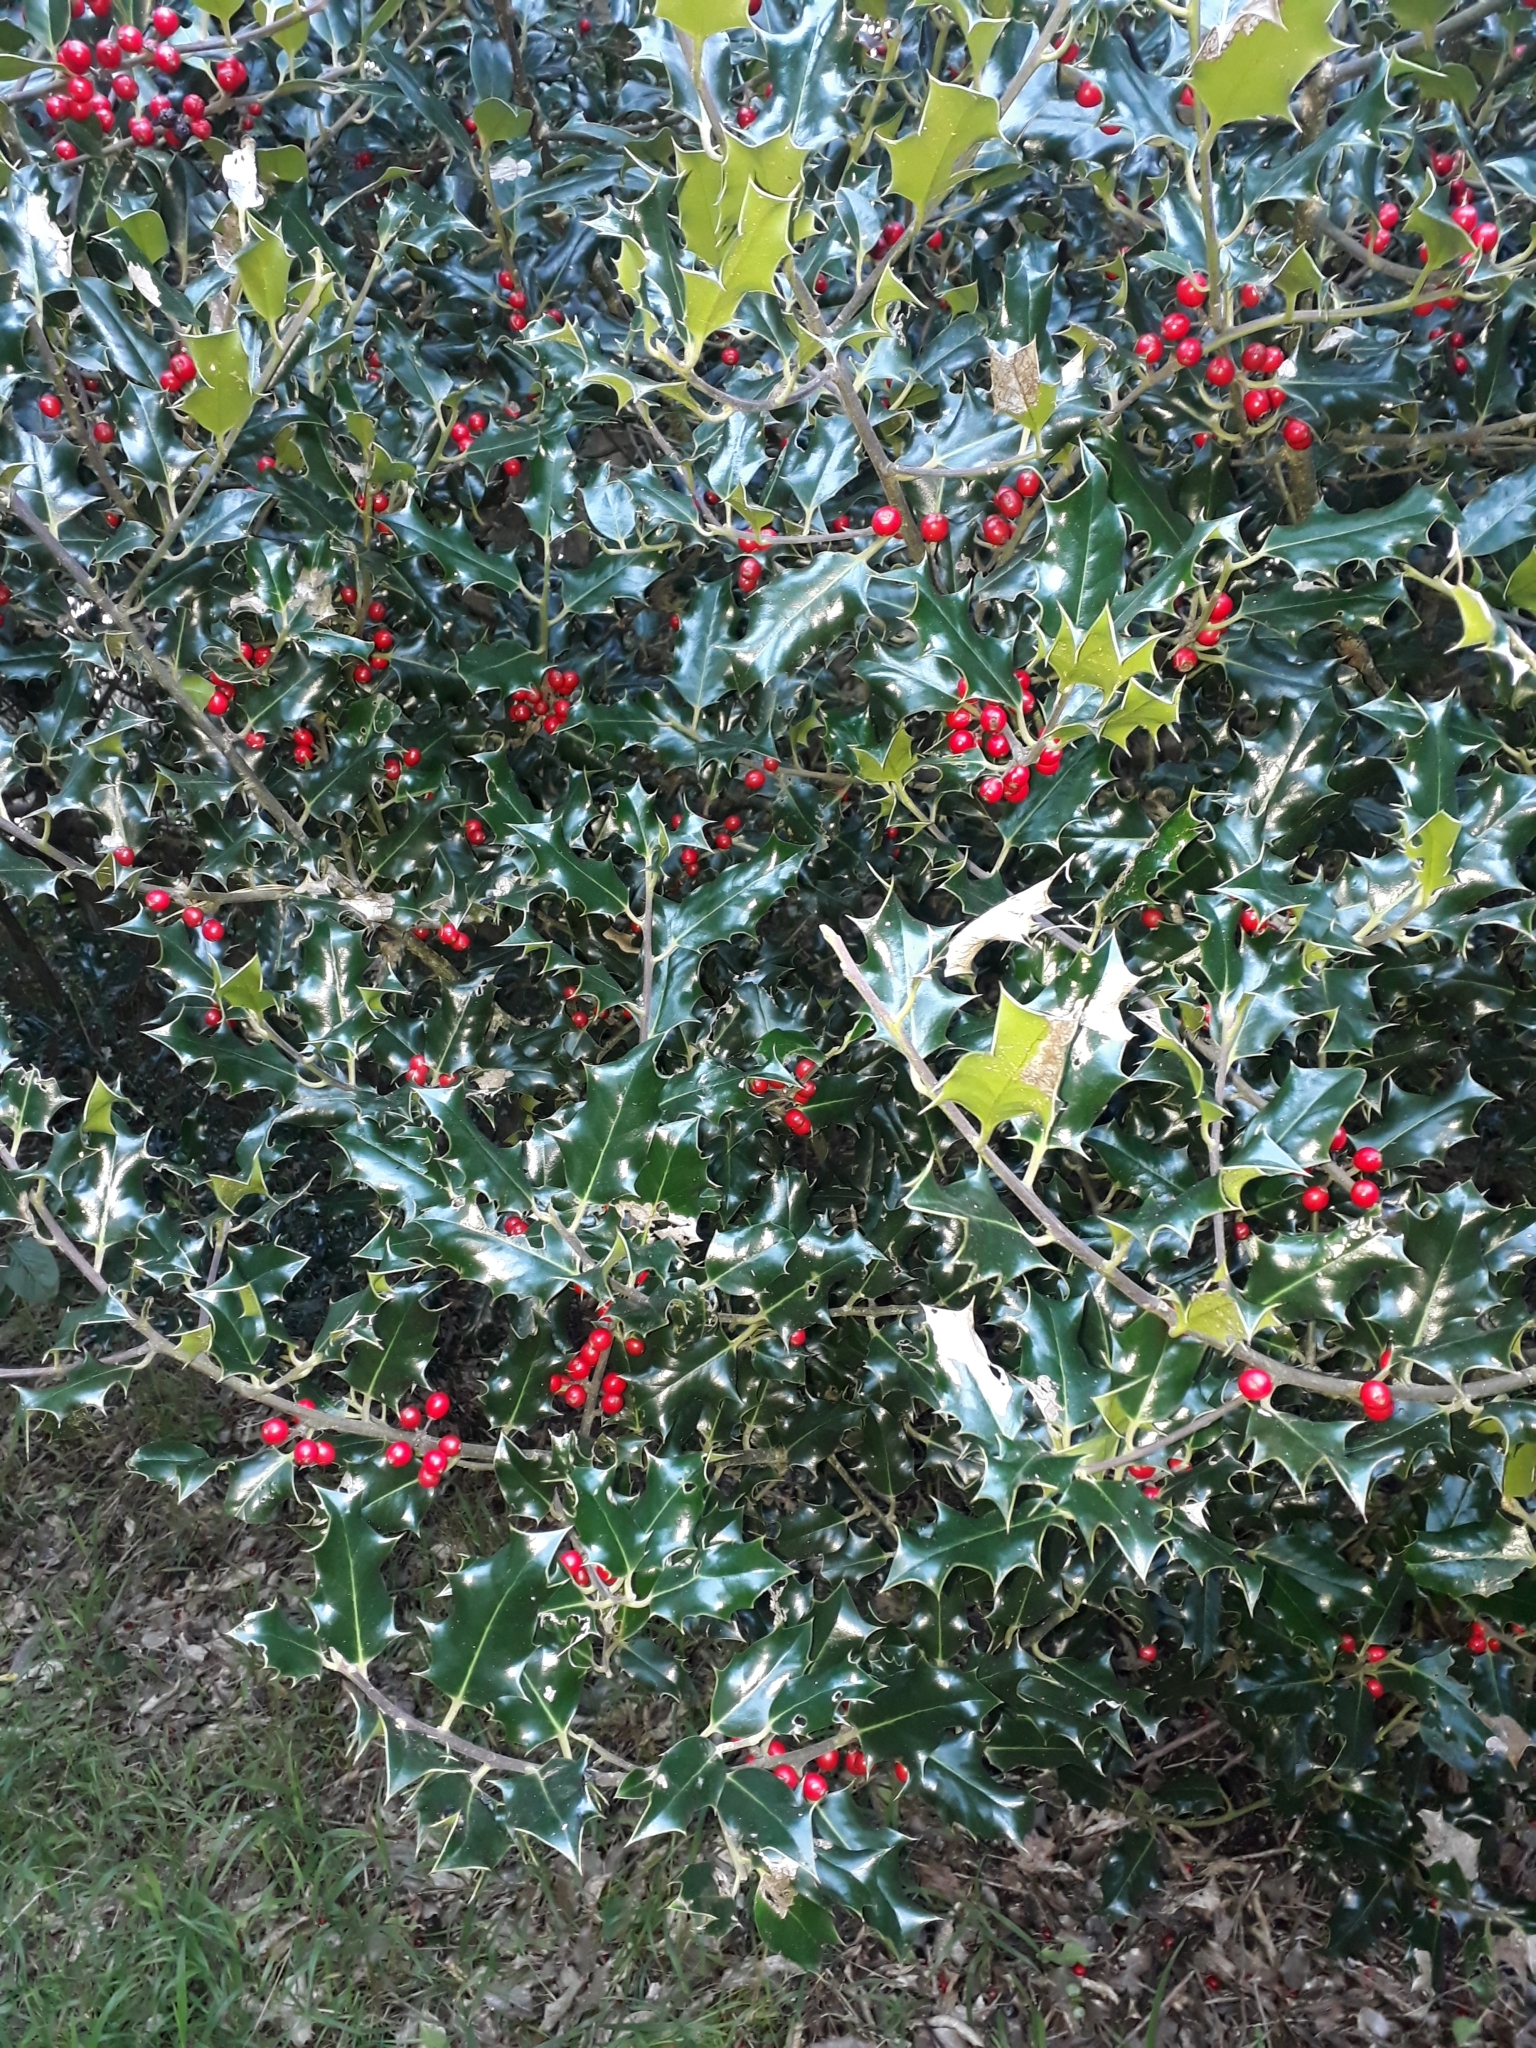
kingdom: Plantae
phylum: Tracheophyta
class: Magnoliopsida
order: Aquifoliales
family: Aquifoliaceae
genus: Ilex
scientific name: Ilex aquifolium
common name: English holly
